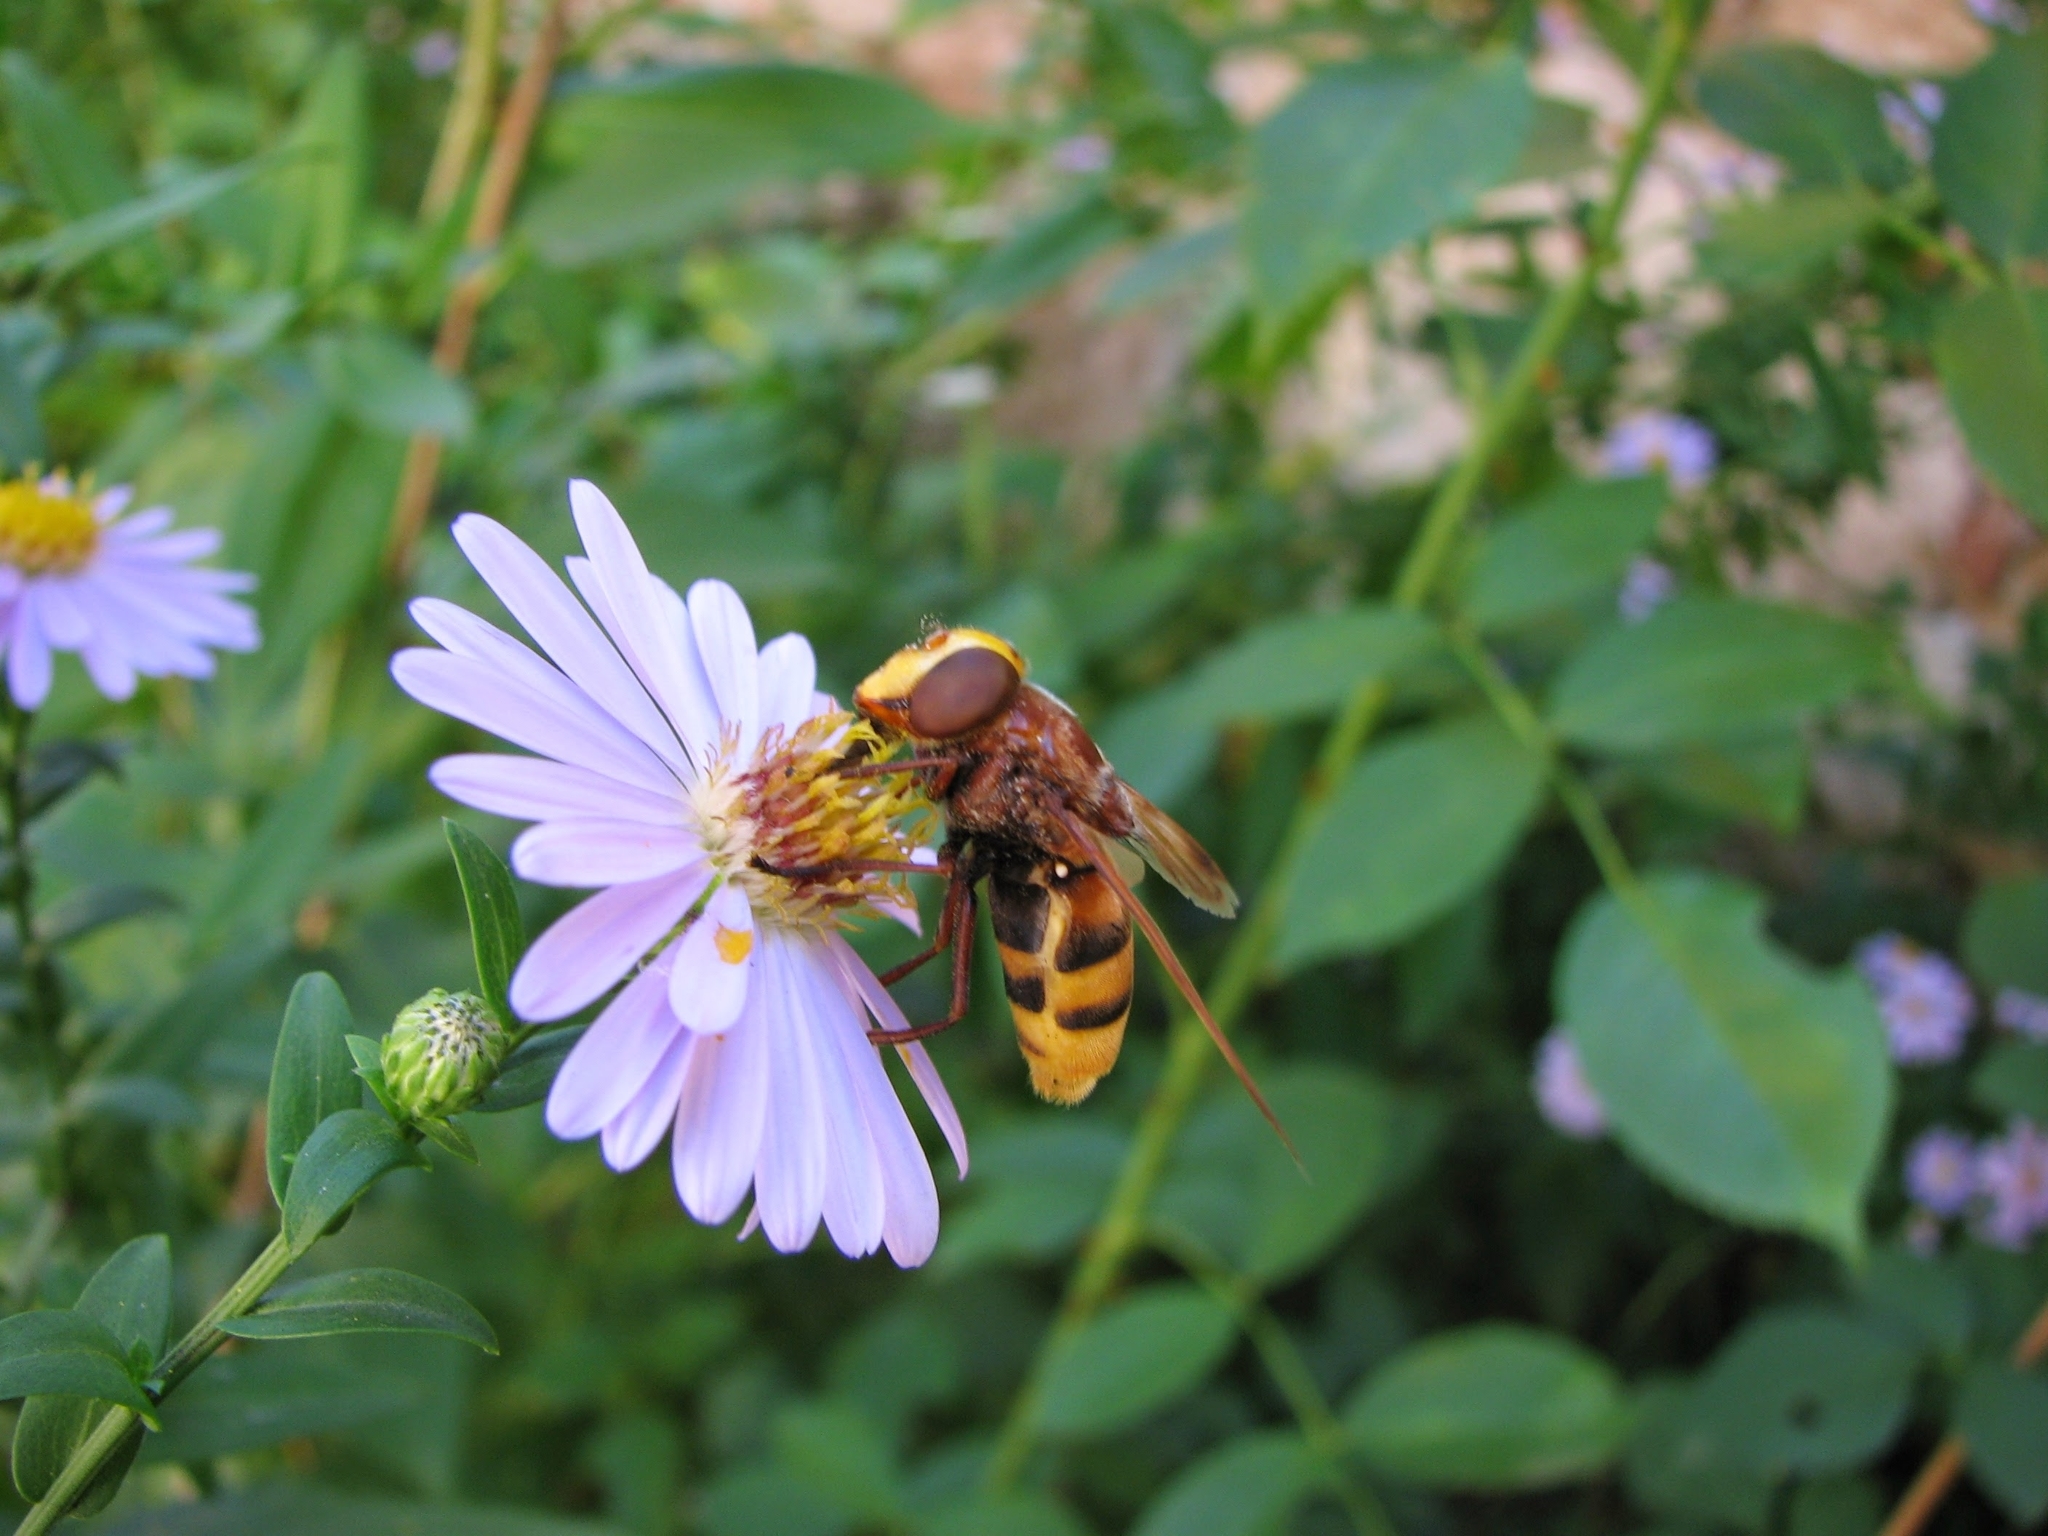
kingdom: Animalia
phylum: Arthropoda
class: Insecta
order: Diptera
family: Syrphidae
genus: Volucella
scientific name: Volucella zonaria
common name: Hornet hoverfly
